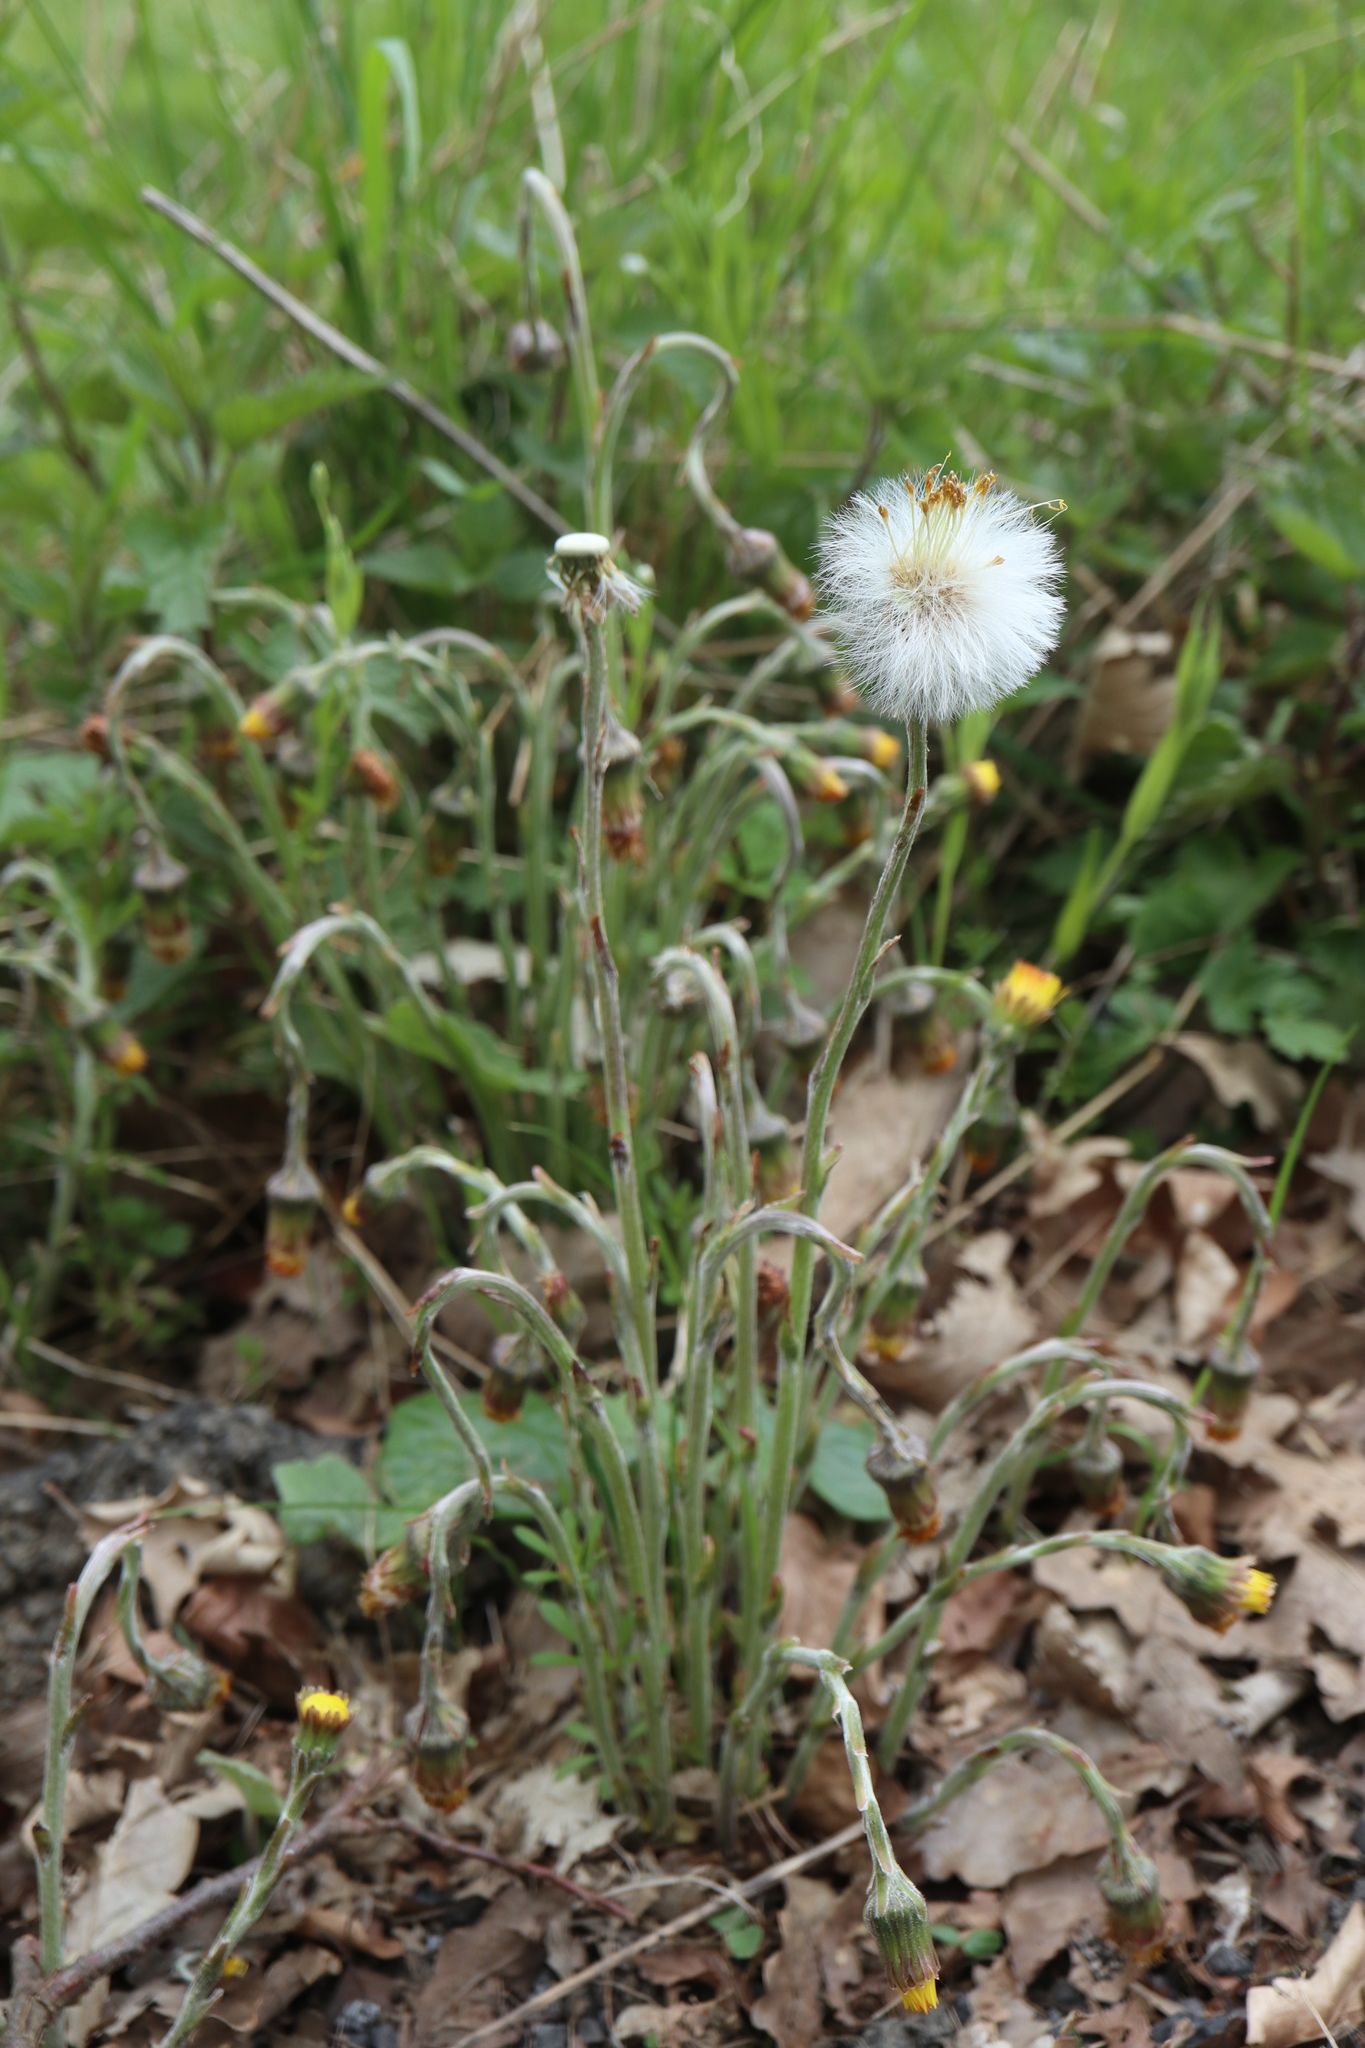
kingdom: Plantae
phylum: Tracheophyta
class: Magnoliopsida
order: Asterales
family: Asteraceae
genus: Tussilago
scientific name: Tussilago farfara
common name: Coltsfoot
